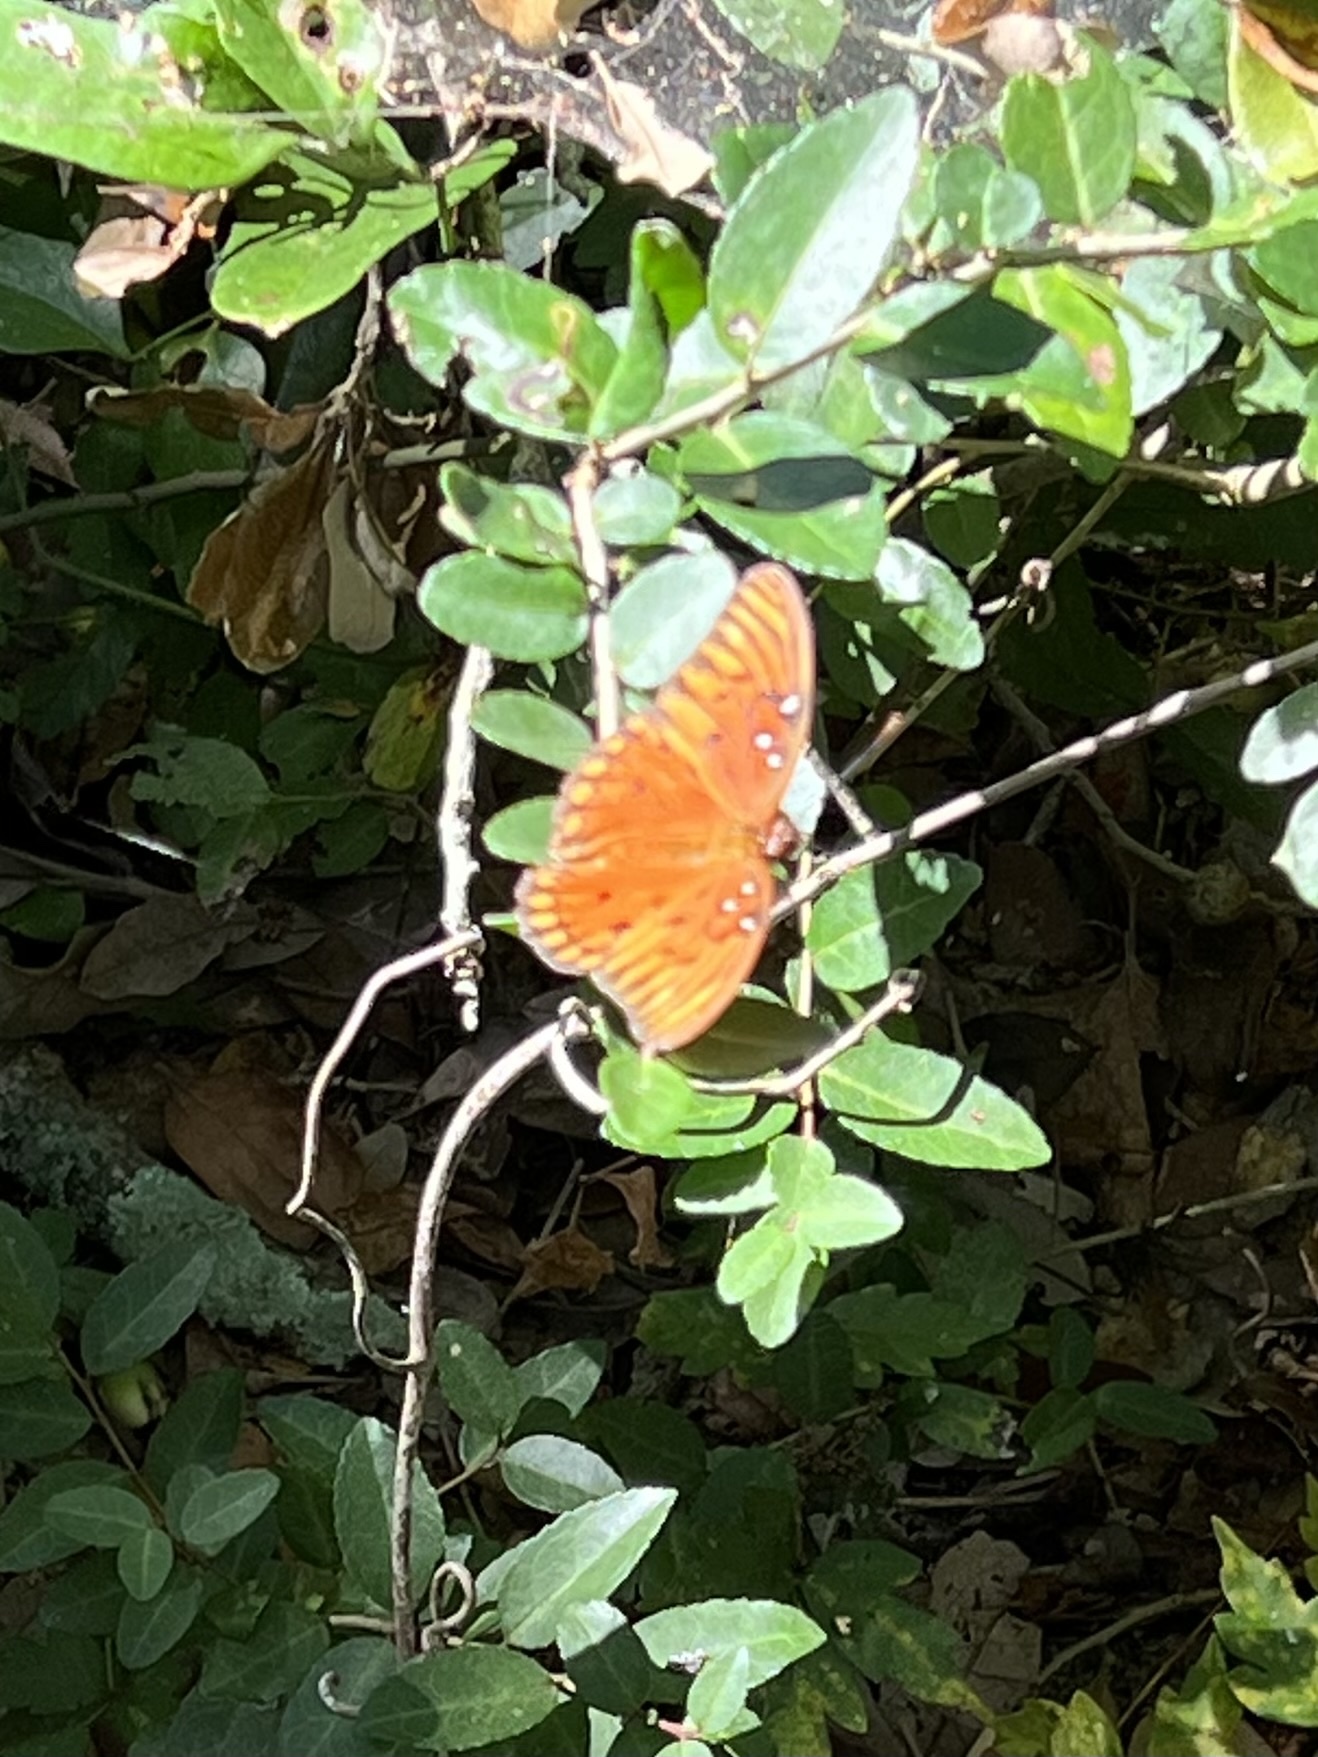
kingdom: Animalia
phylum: Arthropoda
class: Insecta
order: Lepidoptera
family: Nymphalidae
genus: Dione
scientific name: Dione vanillae
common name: Gulf fritillary
